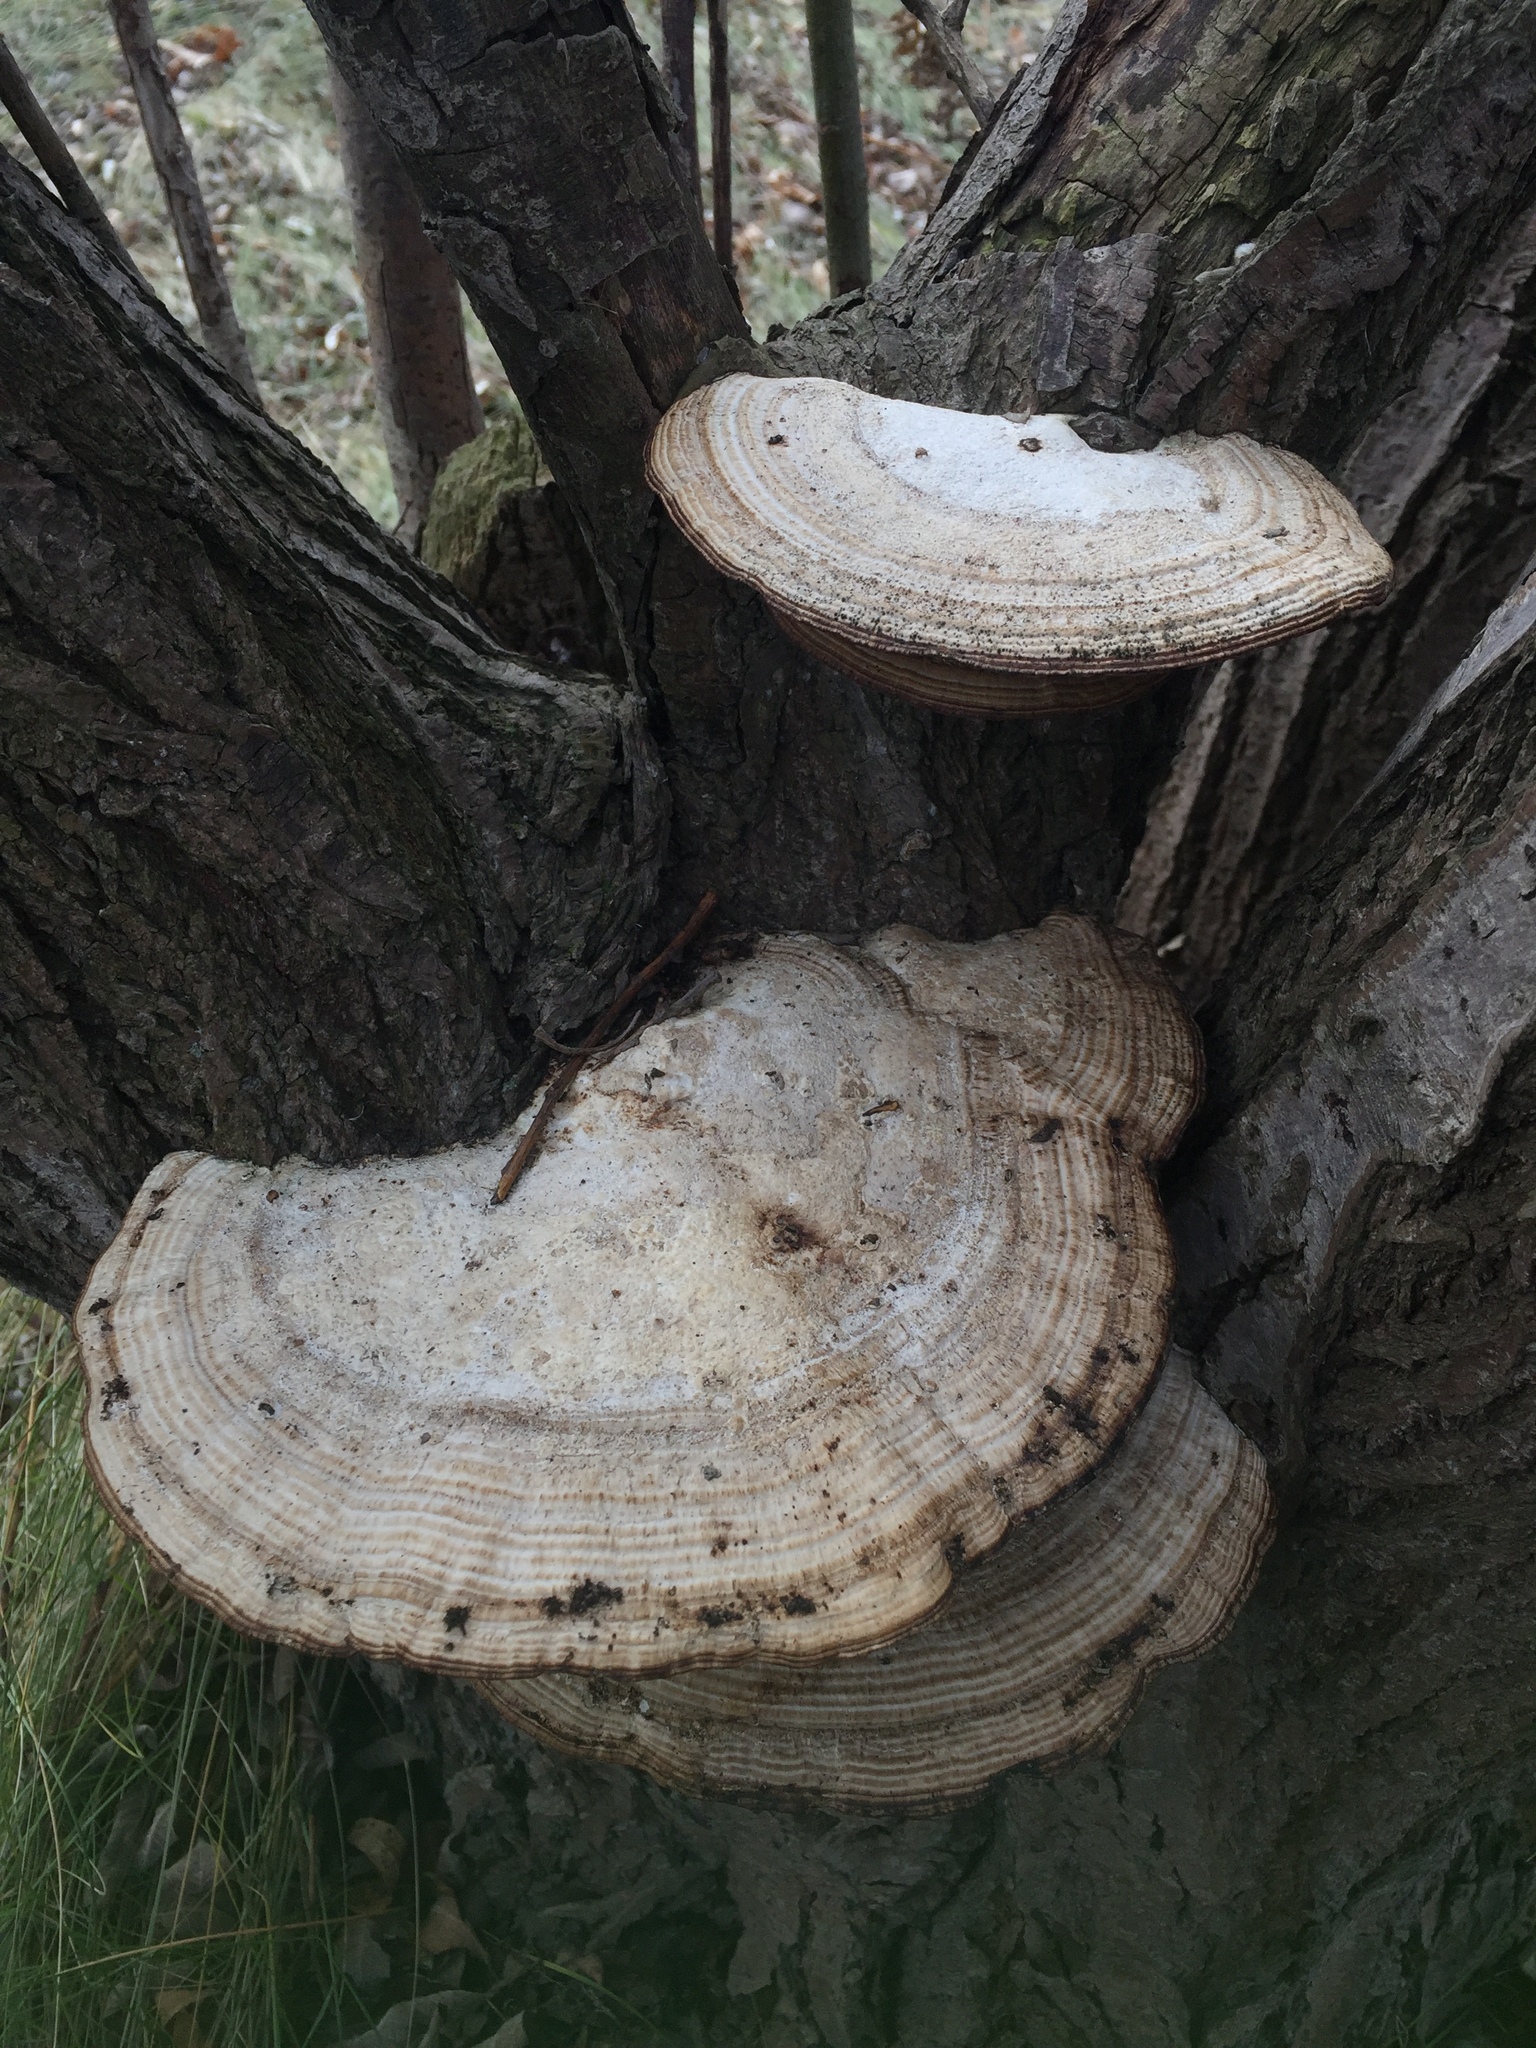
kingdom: Fungi
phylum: Basidiomycota
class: Agaricomycetes
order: Polyporales
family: Polyporaceae
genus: Daedaleopsis
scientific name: Daedaleopsis confragosa
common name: Blushing bracket
